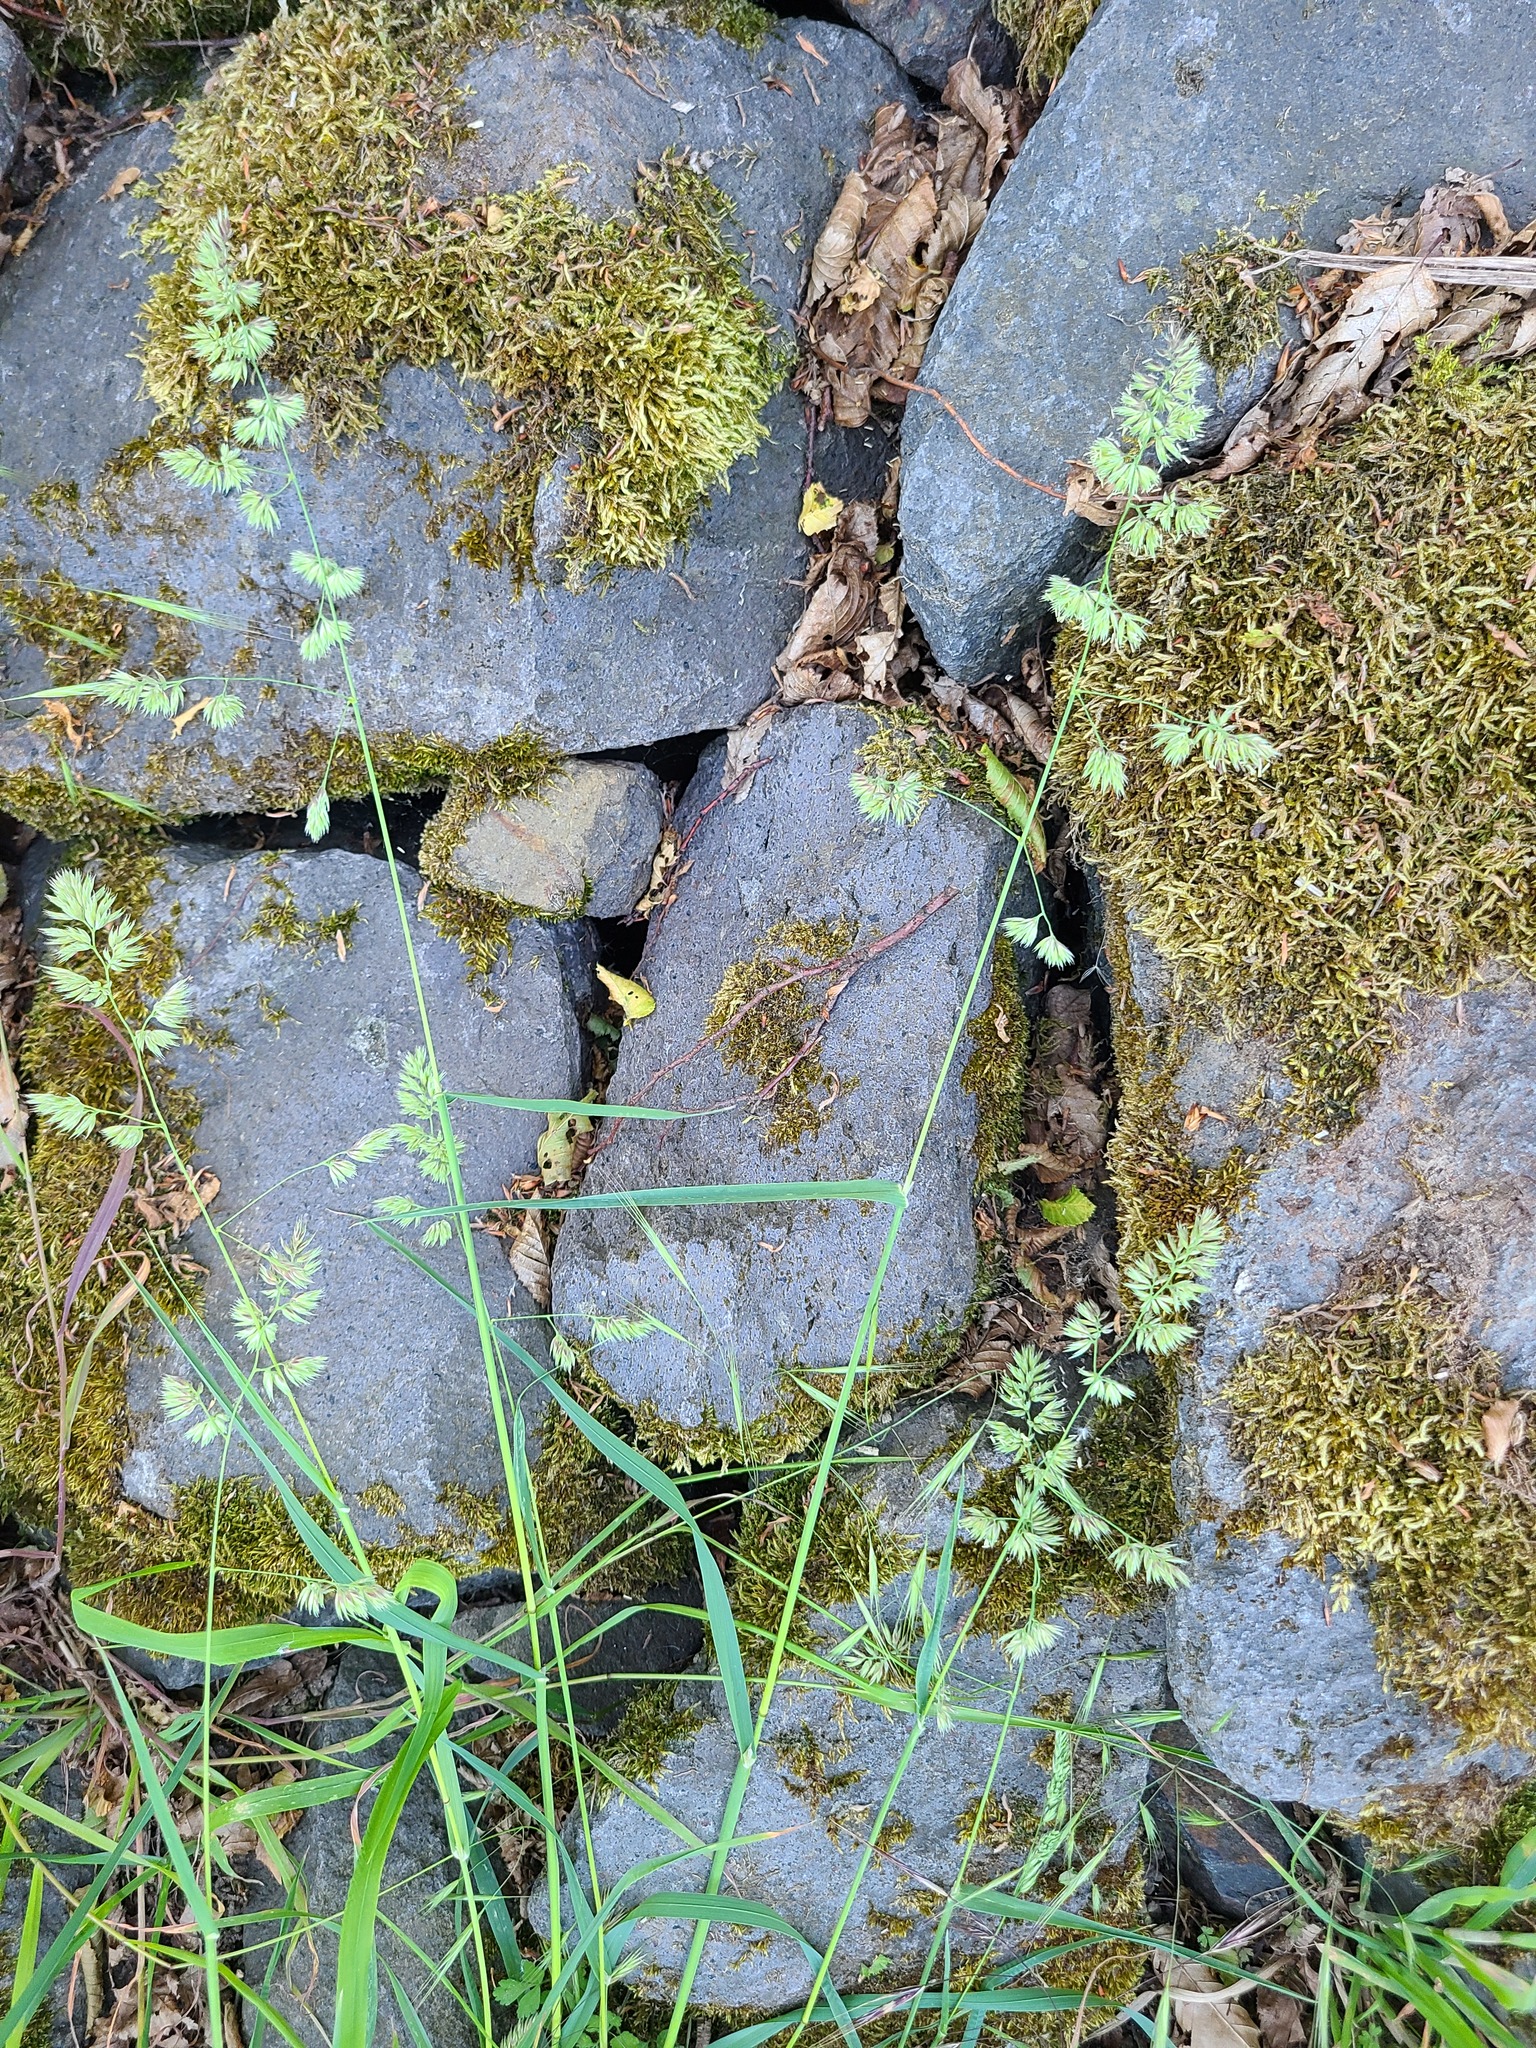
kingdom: Plantae
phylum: Tracheophyta
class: Liliopsida
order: Poales
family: Poaceae
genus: Dactylis
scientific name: Dactylis glomerata
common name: Orchardgrass
